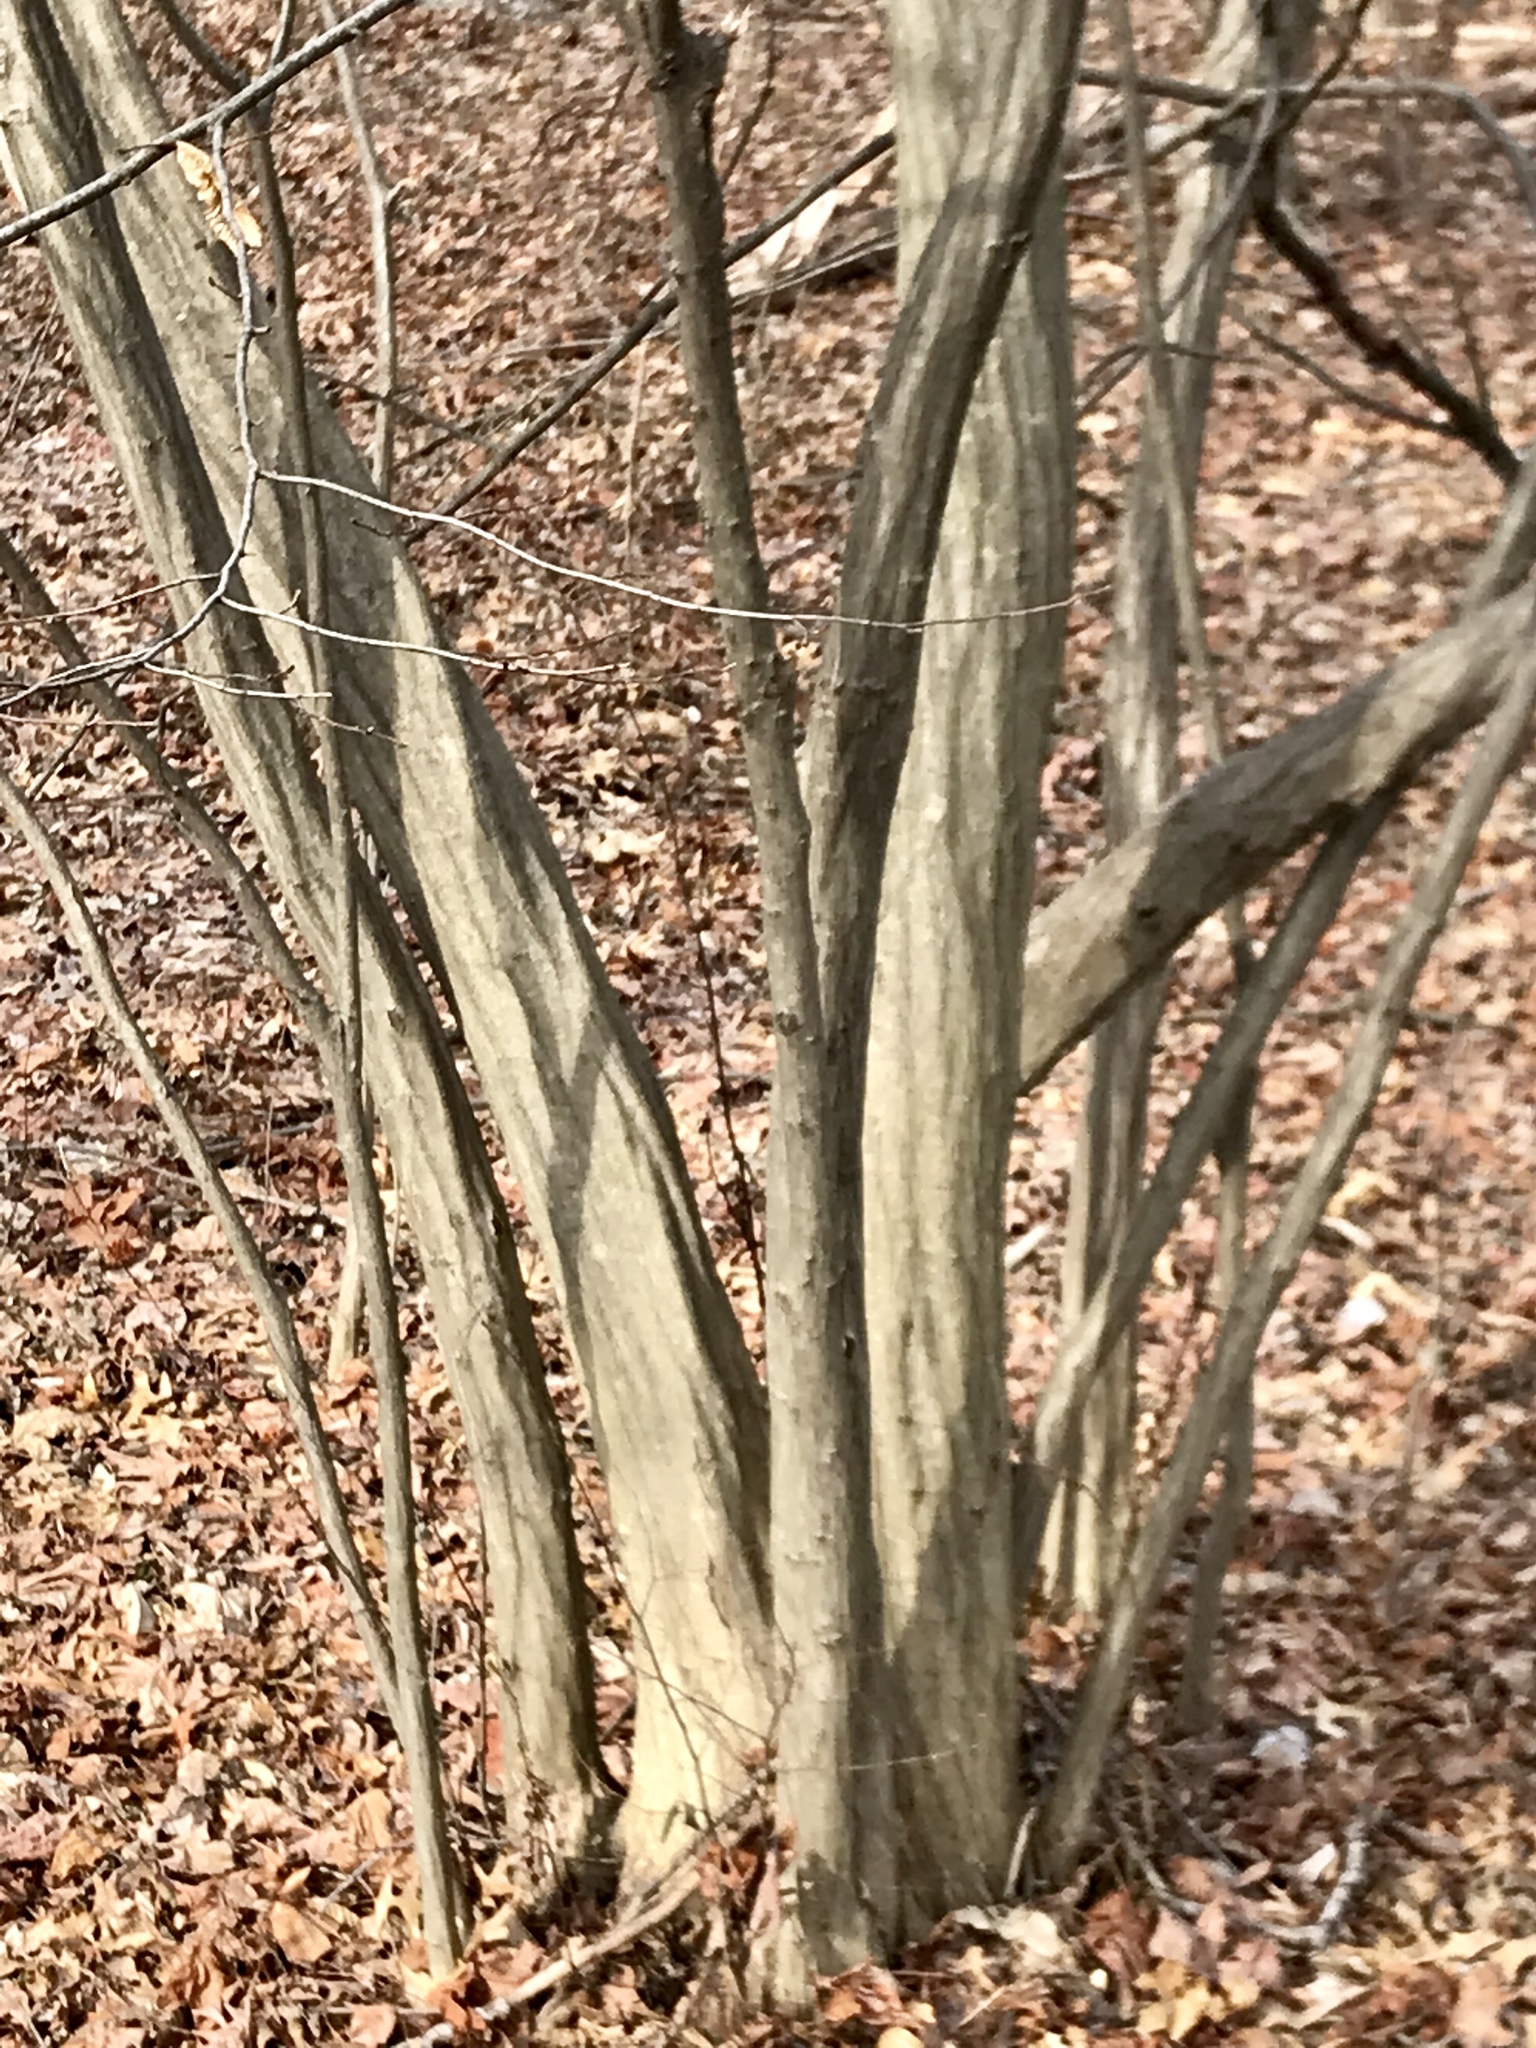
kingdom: Plantae
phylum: Tracheophyta
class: Magnoliopsida
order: Fagales
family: Betulaceae
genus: Carpinus
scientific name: Carpinus caroliniana
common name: American hornbeam
